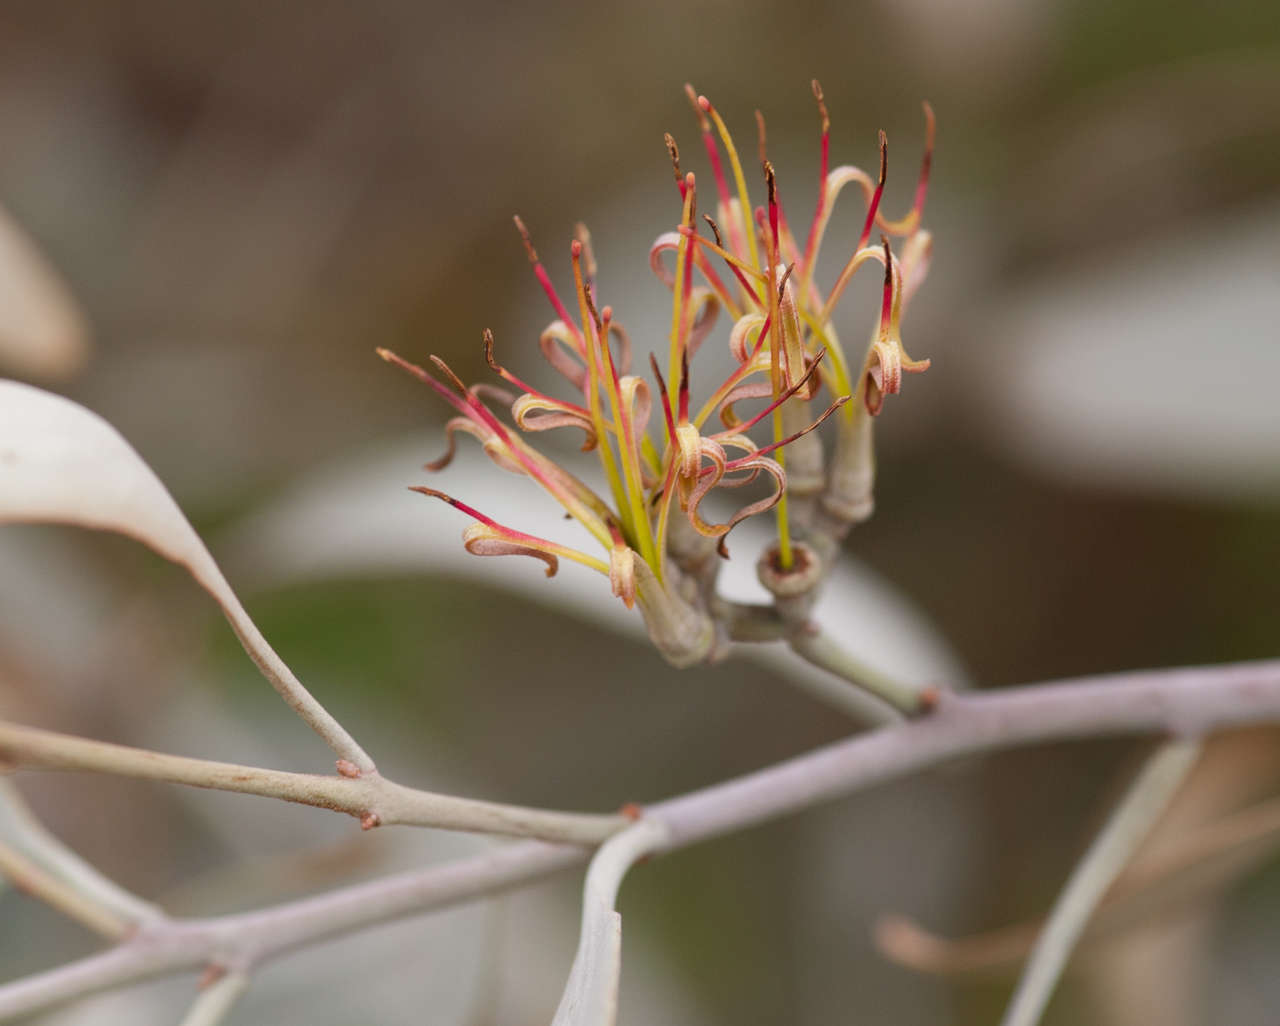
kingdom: Plantae
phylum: Tracheophyta
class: Magnoliopsida
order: Santalales
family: Loranthaceae
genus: Amyema
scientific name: Amyema quandang
